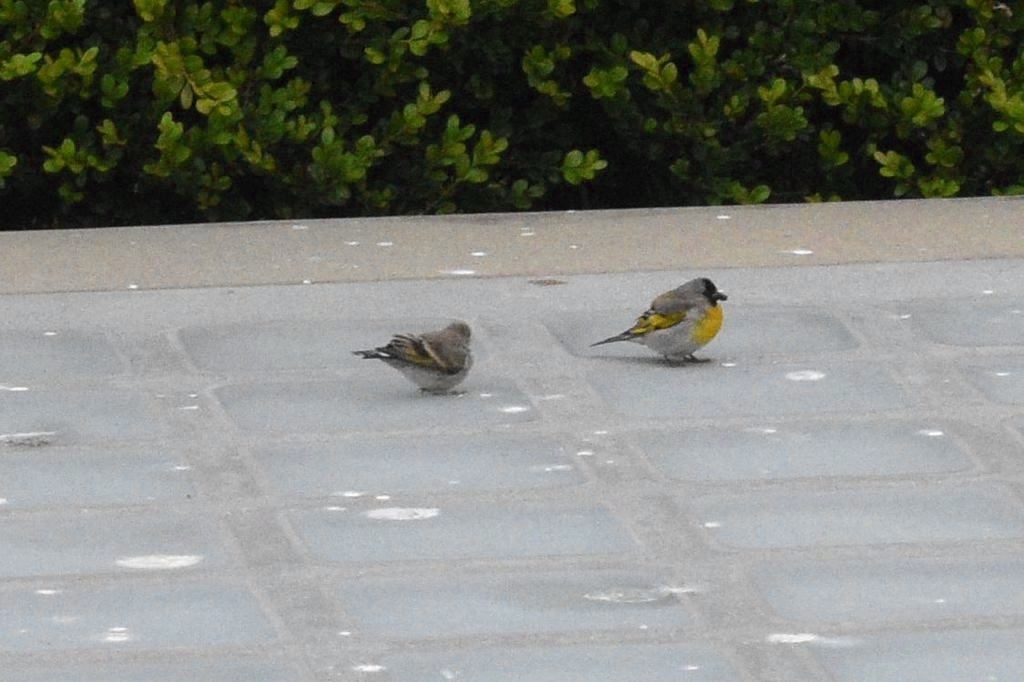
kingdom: Animalia
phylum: Chordata
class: Aves
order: Passeriformes
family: Fringillidae
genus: Spinus
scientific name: Spinus lawrencei
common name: Lawrence's goldfinch
